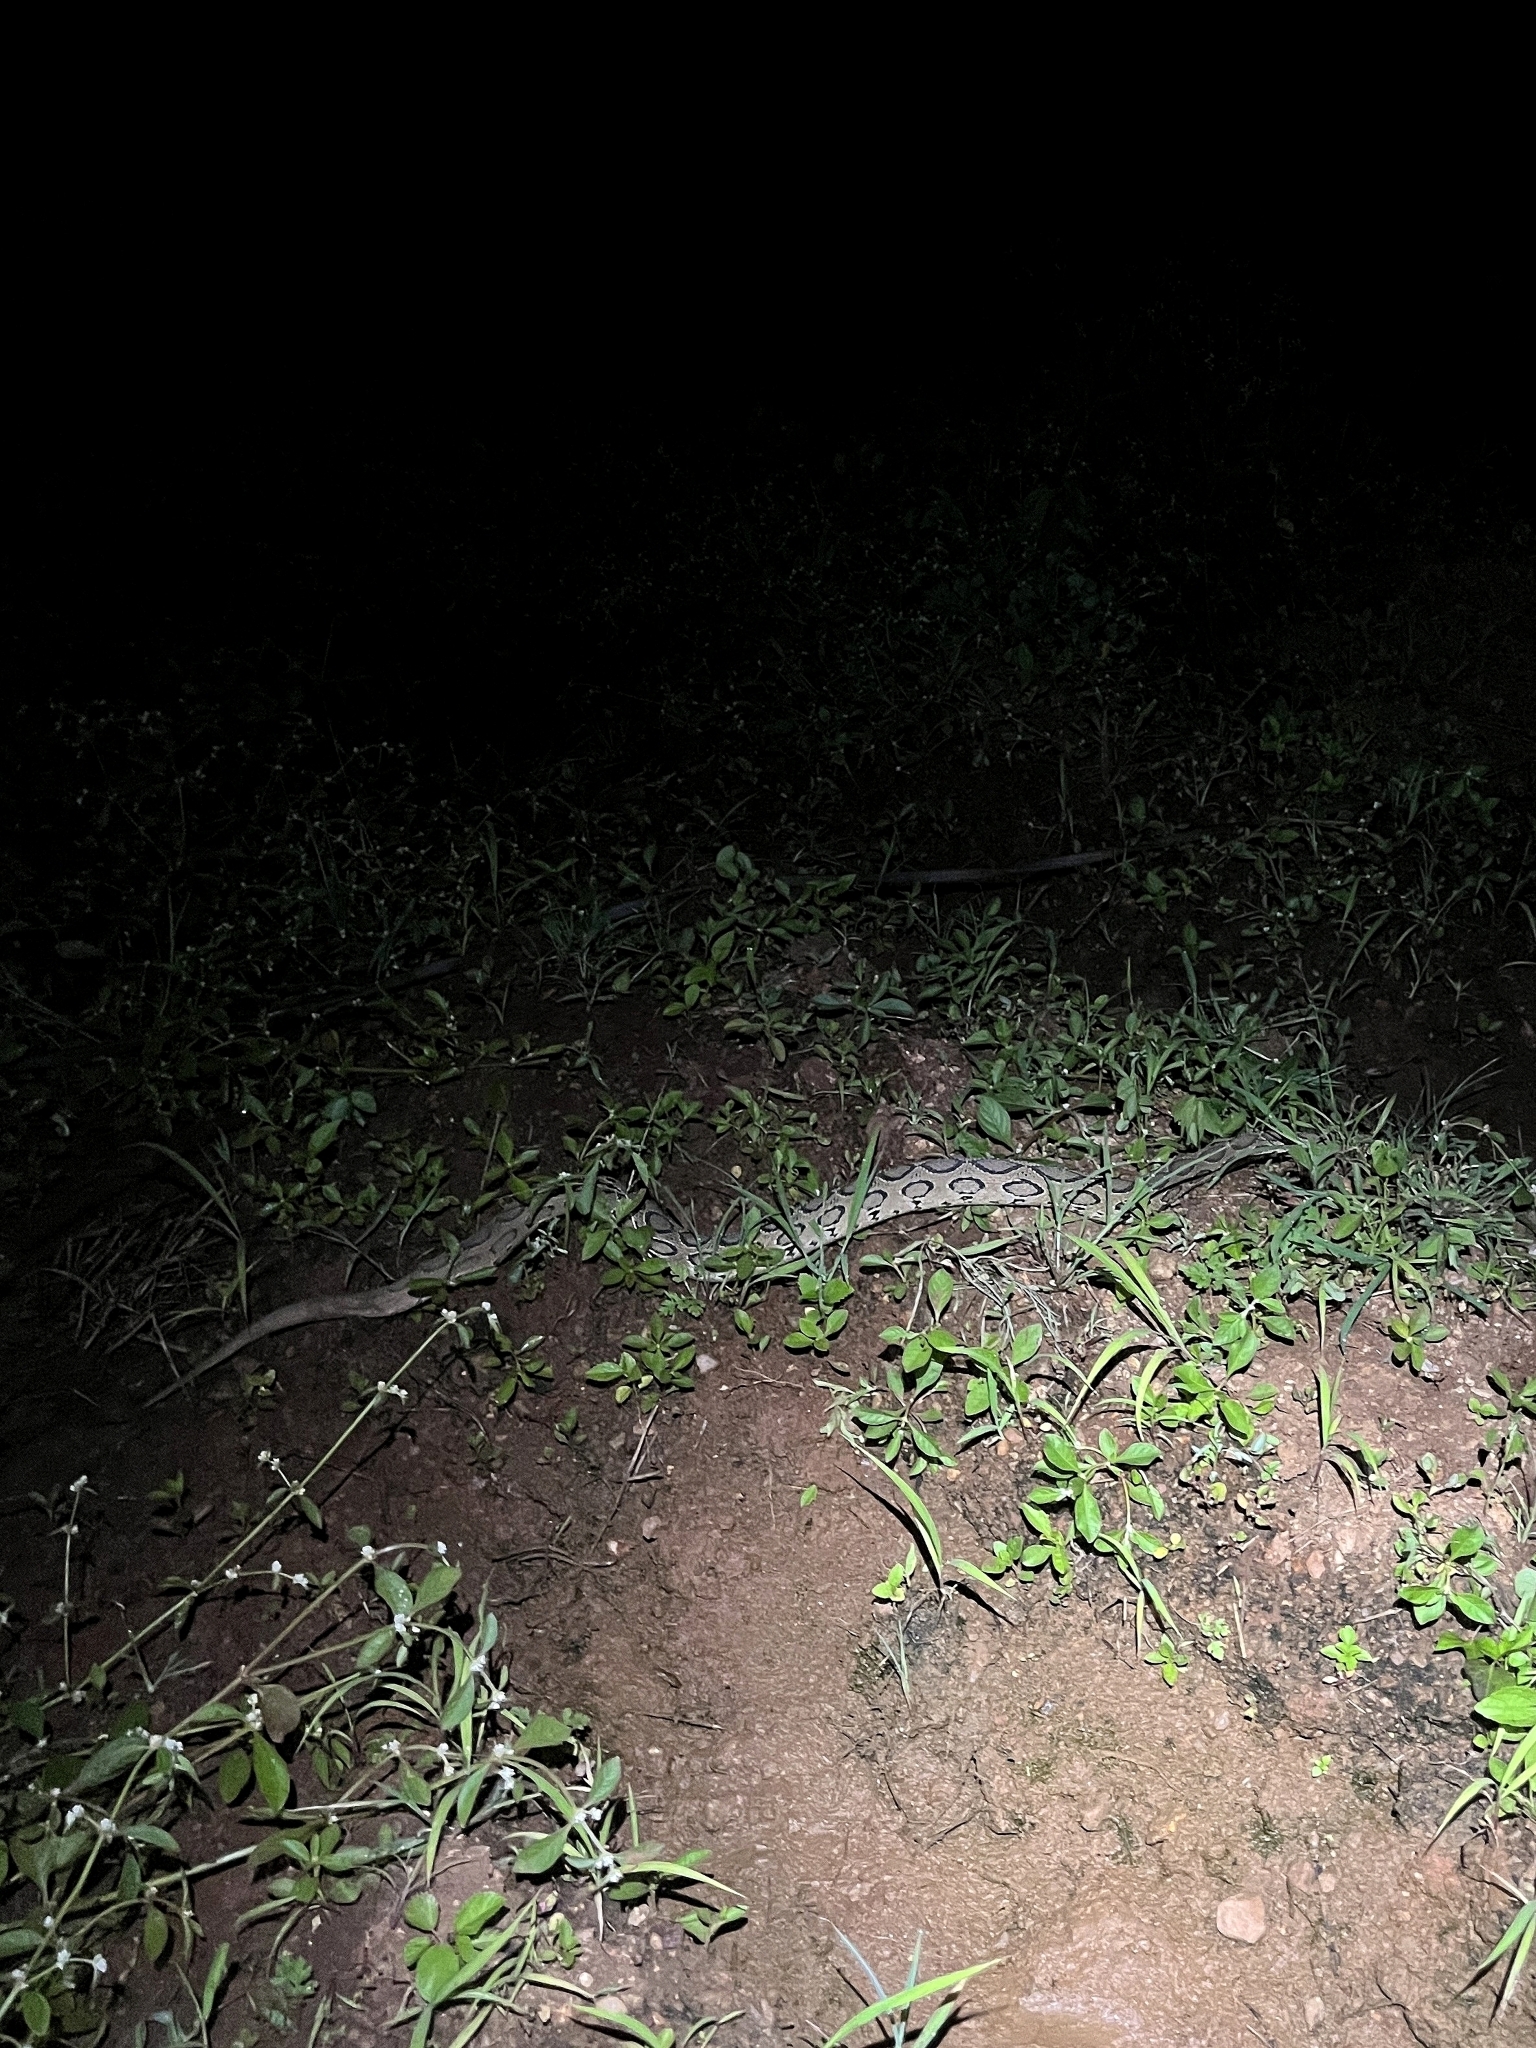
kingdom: Animalia
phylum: Chordata
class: Squamata
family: Viperidae
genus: Daboia
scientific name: Daboia russelii
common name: Western russel’s viper
